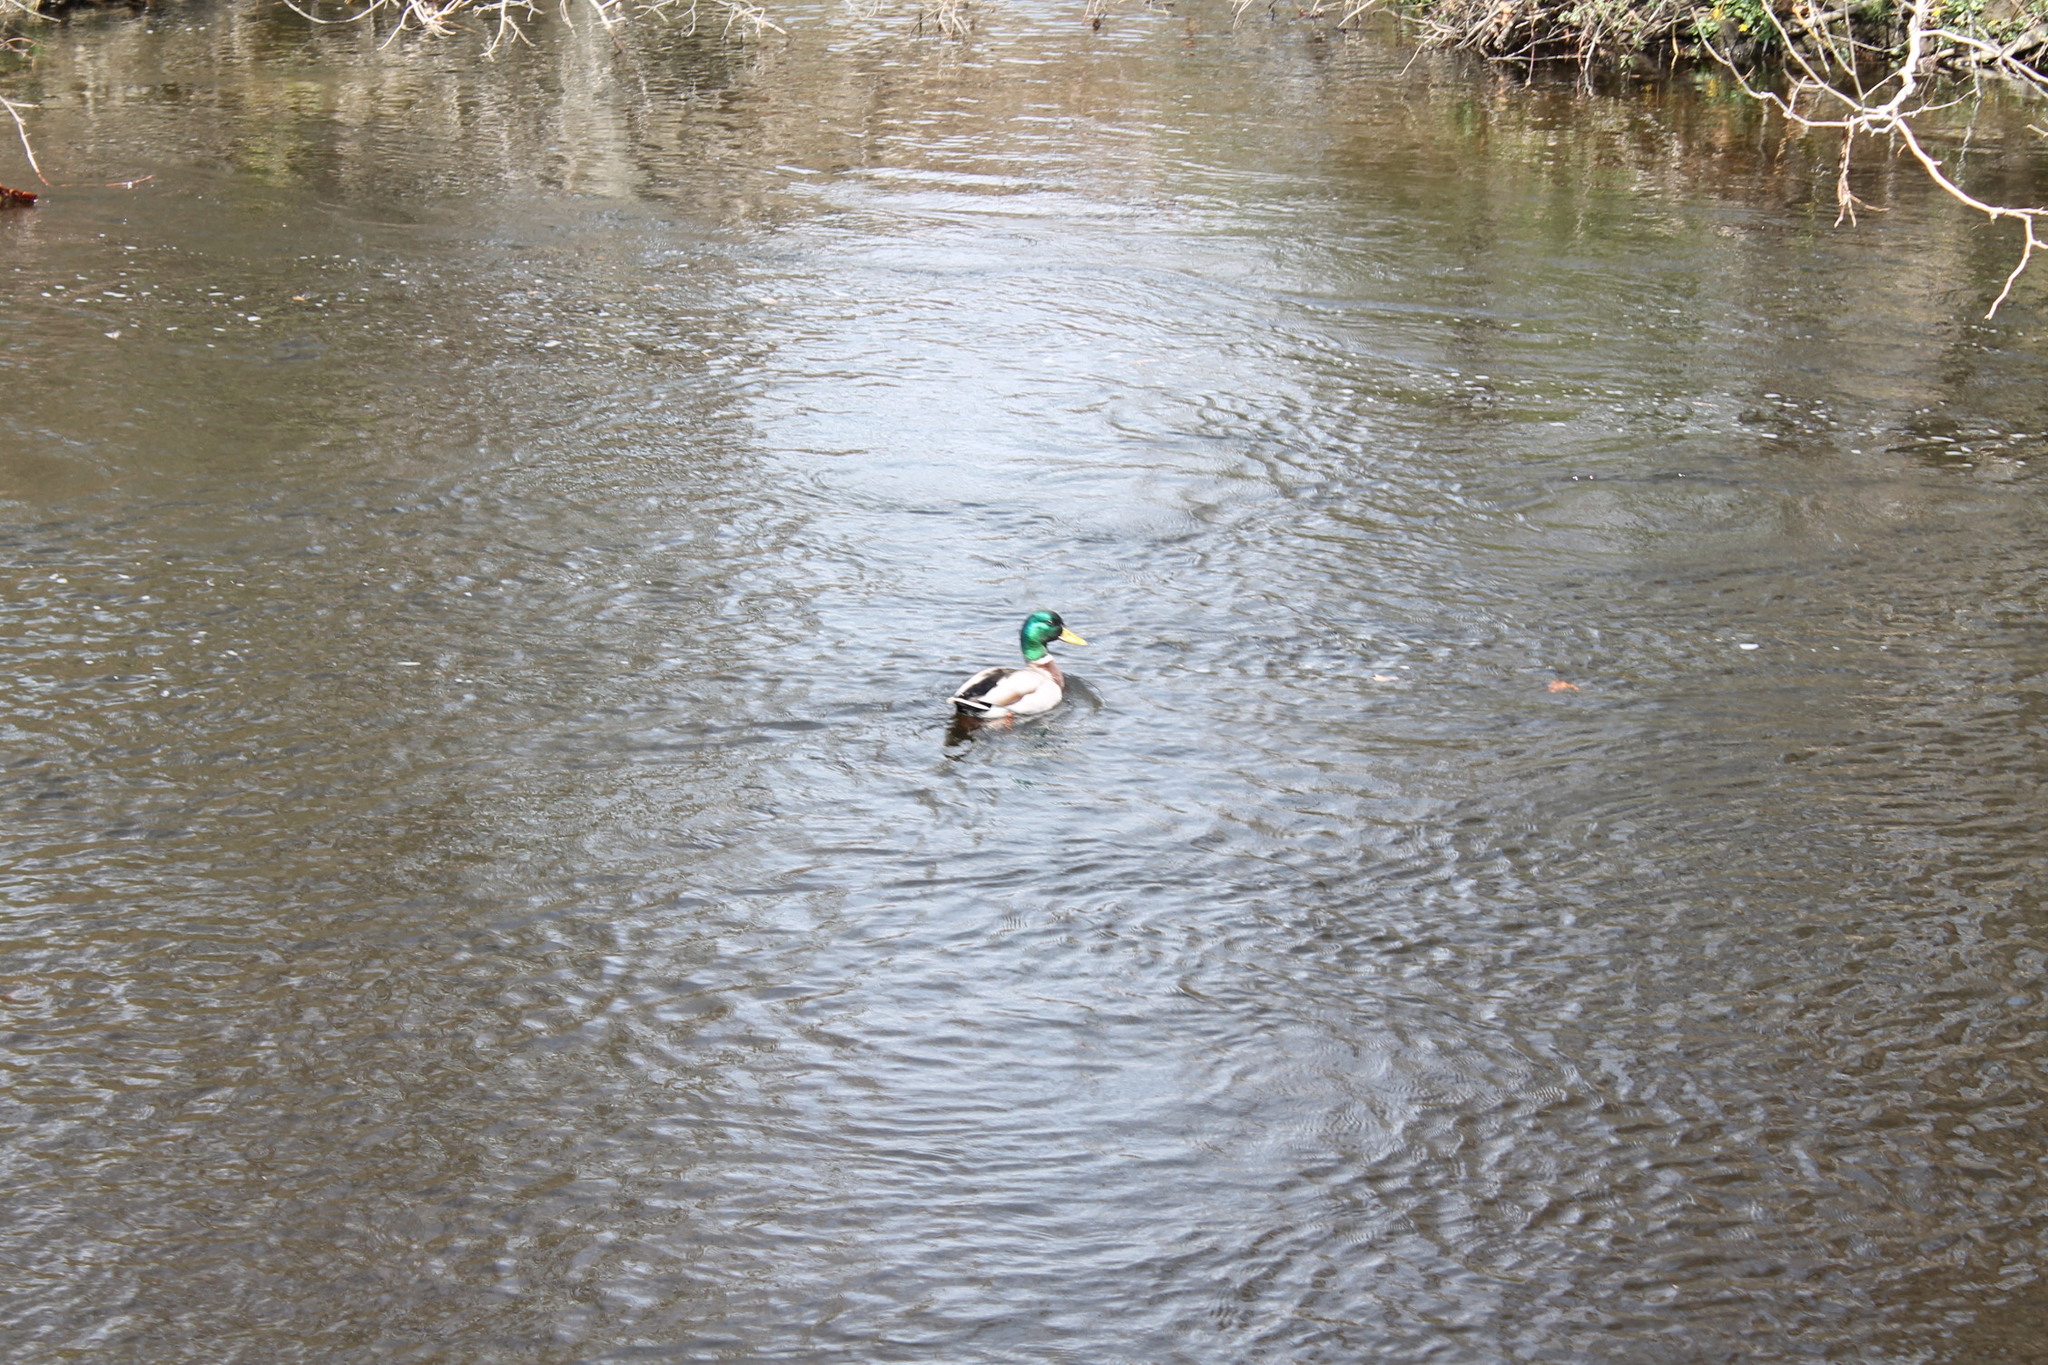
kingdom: Animalia
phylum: Chordata
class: Aves
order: Anseriformes
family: Anatidae
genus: Anas
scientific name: Anas platyrhynchos
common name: Mallard
